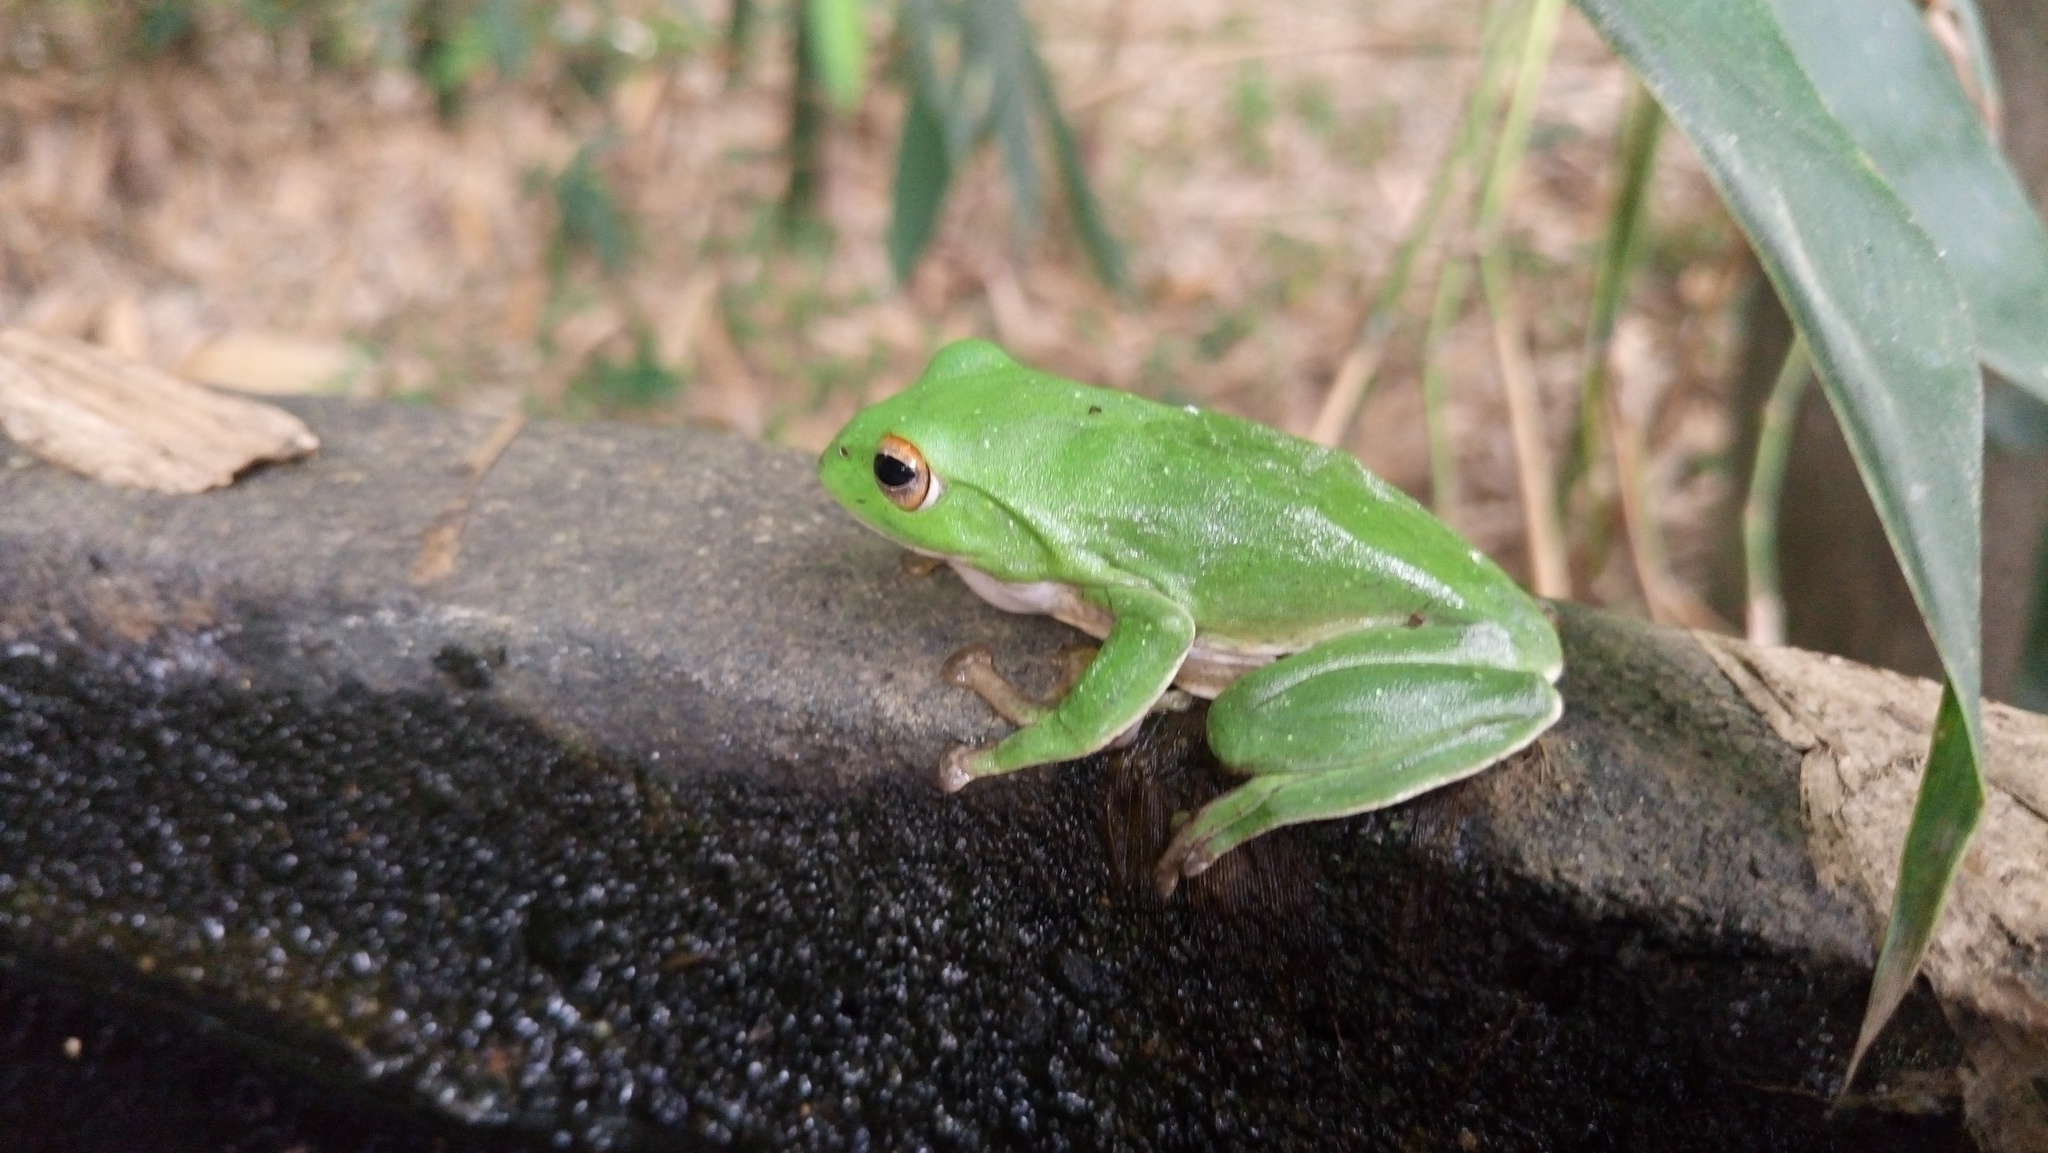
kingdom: Animalia
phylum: Chordata
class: Amphibia
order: Anura
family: Rhacophoridae
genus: Zhangixalus
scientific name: Zhangixalus moltrechti
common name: Moltrecht's treefrog
